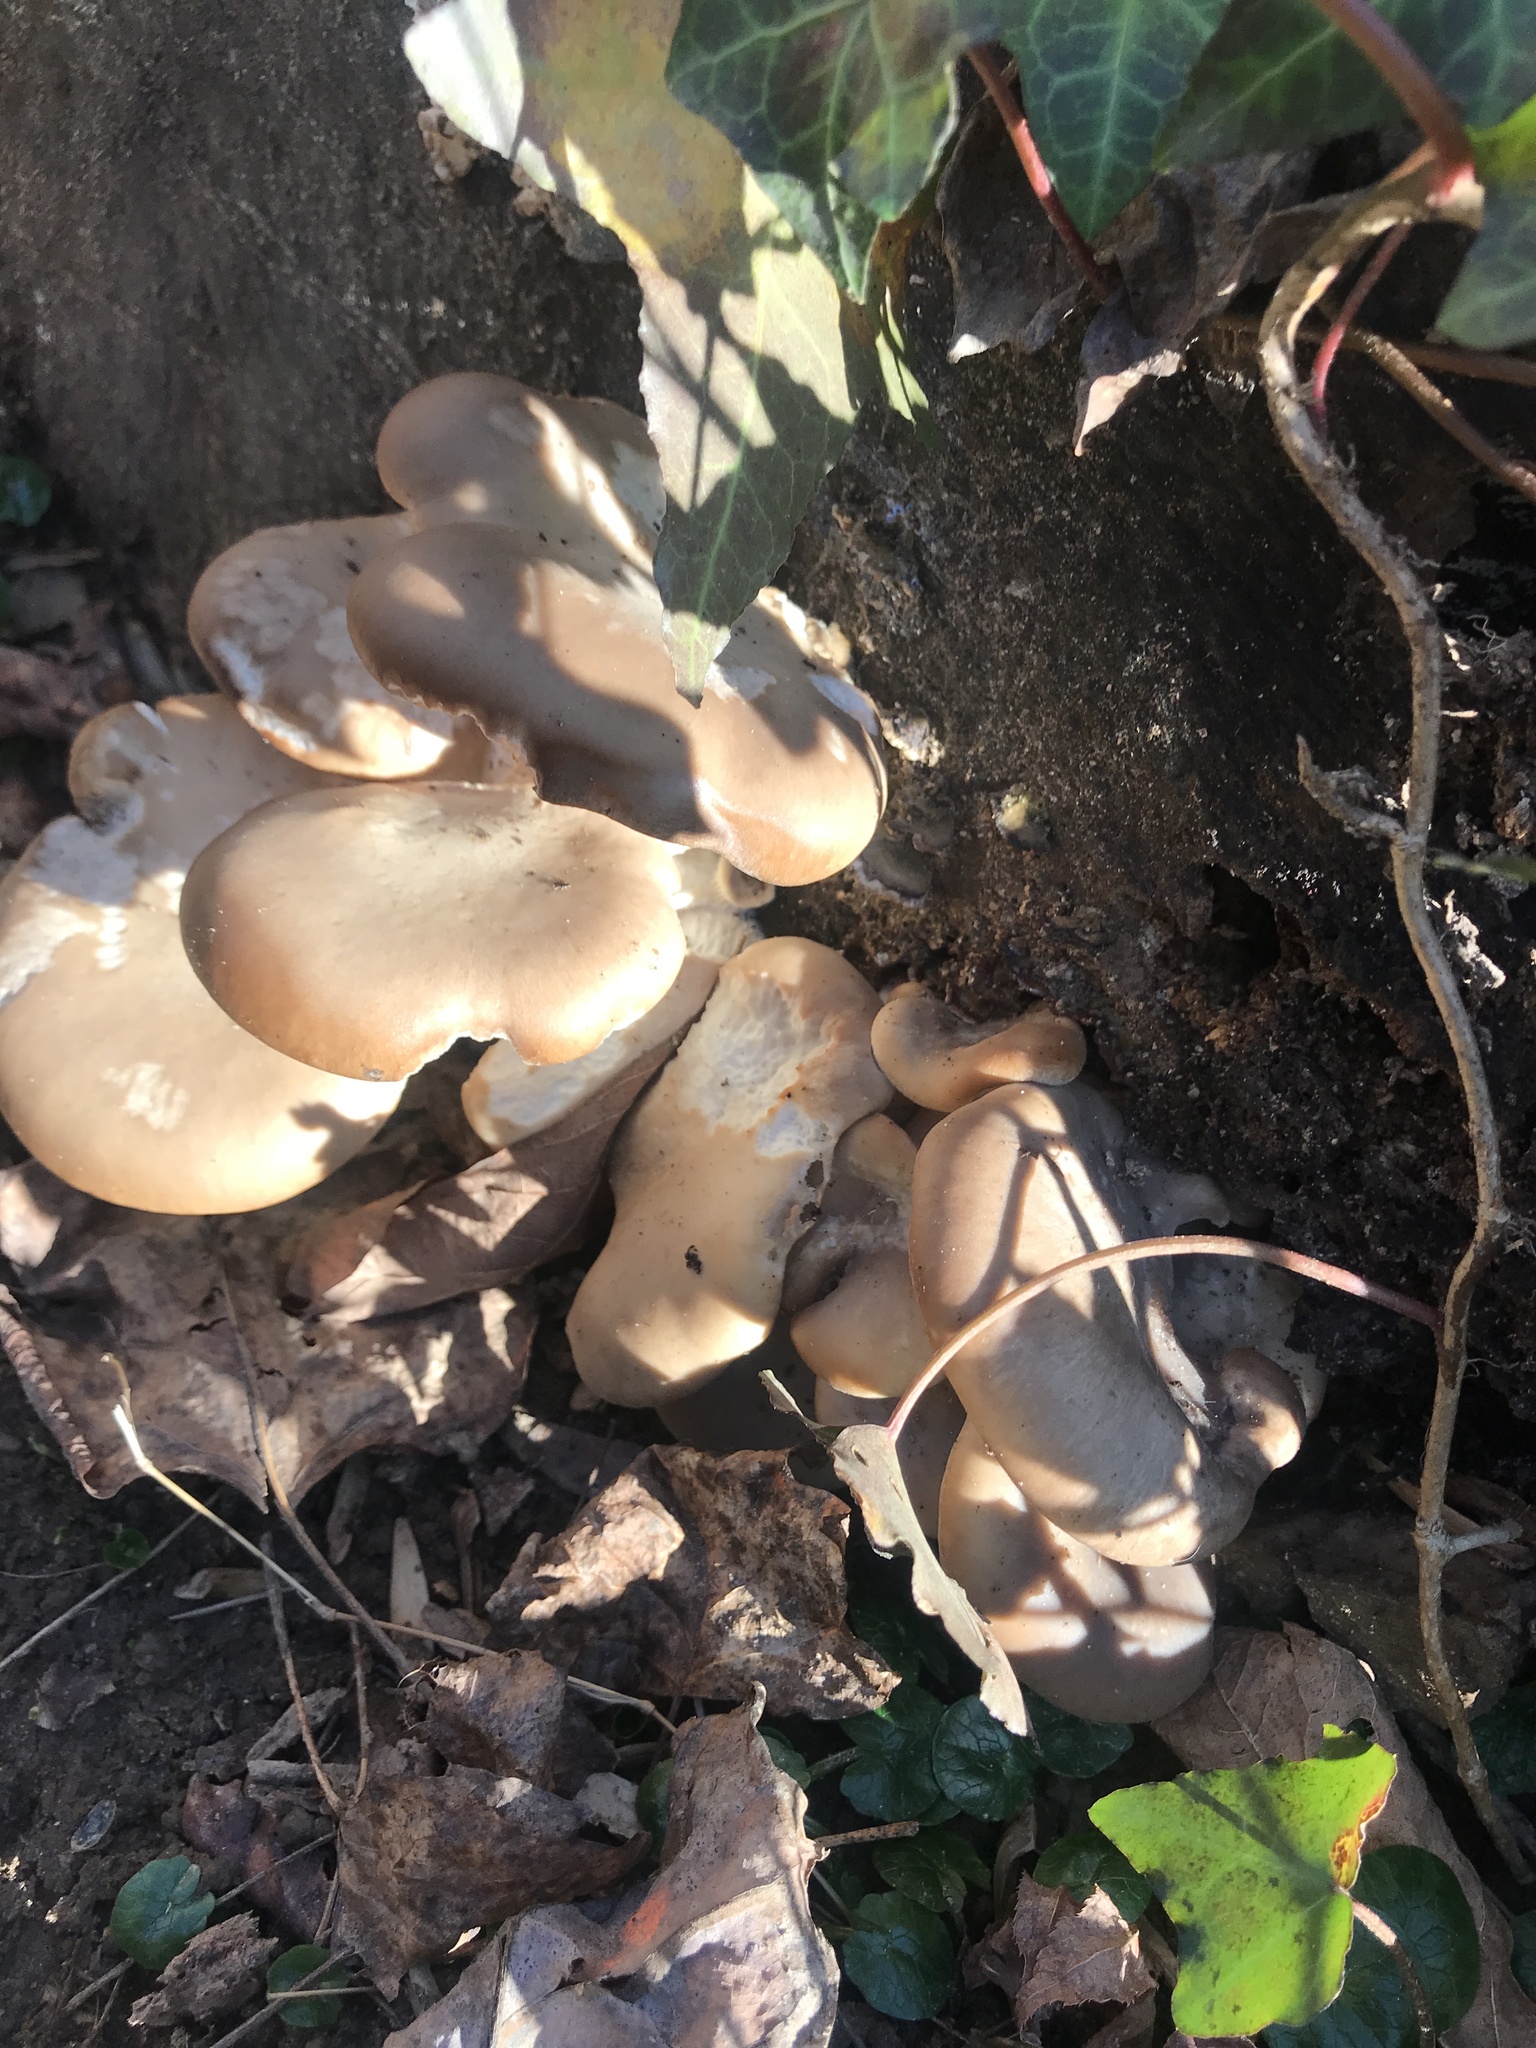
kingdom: Fungi
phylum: Basidiomycota
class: Agaricomycetes
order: Agaricales
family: Pleurotaceae
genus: Pleurotus
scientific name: Pleurotus ostreatus
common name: Oyster mushroom
